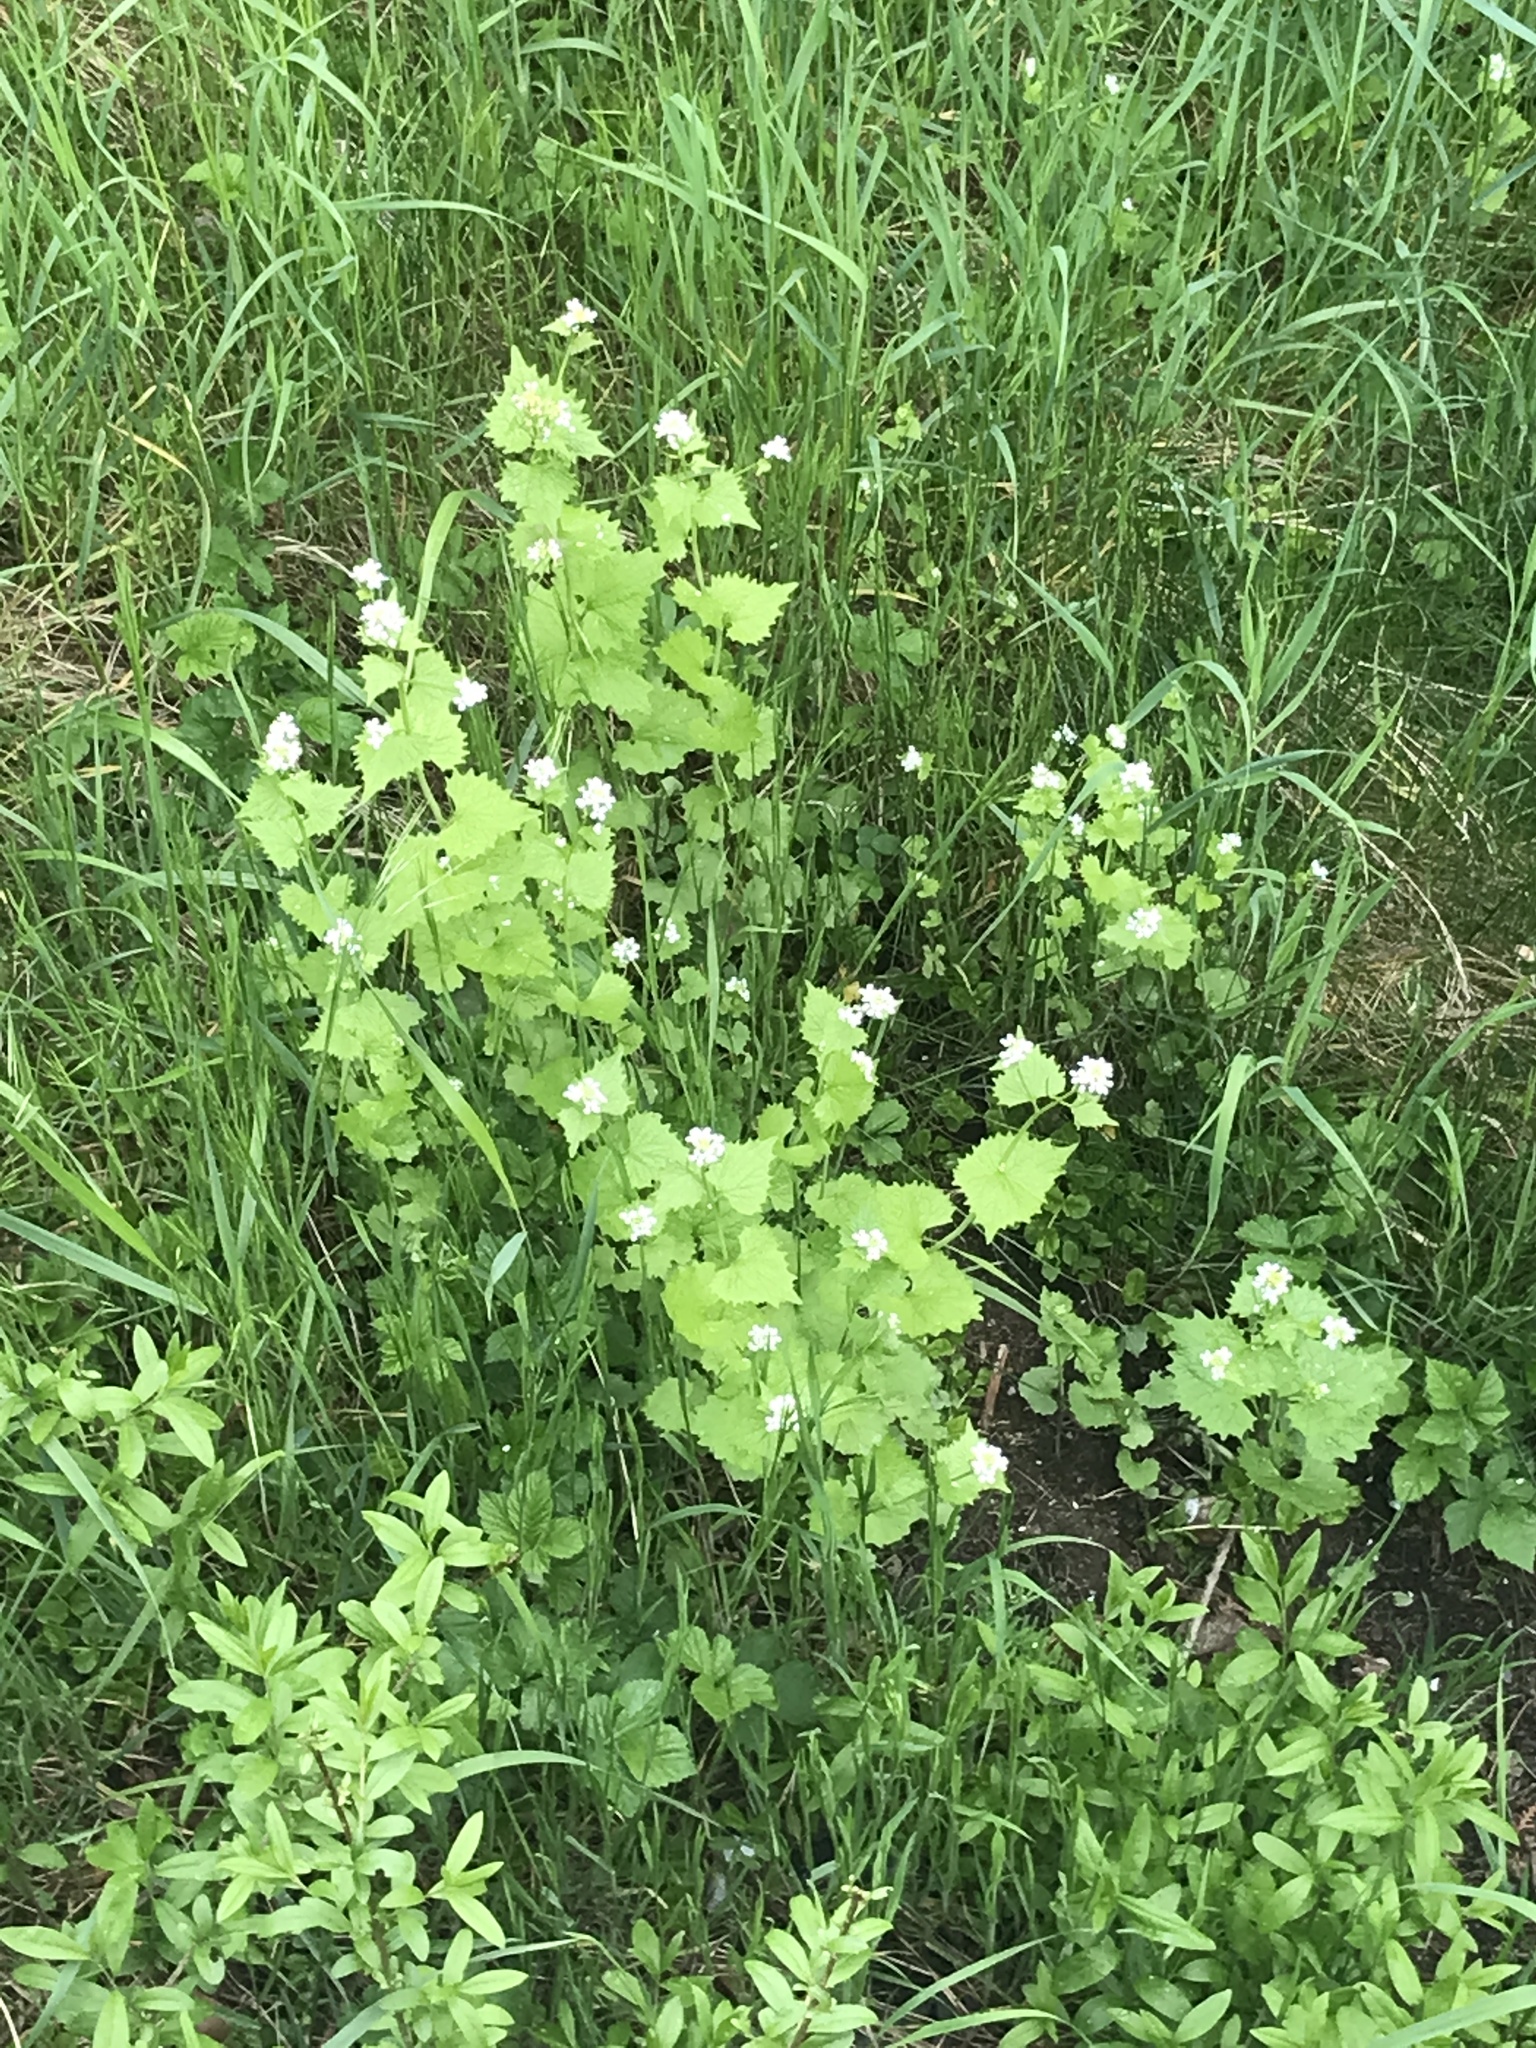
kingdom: Plantae
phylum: Tracheophyta
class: Magnoliopsida
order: Brassicales
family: Brassicaceae
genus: Alliaria
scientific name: Alliaria petiolata
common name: Garlic mustard
